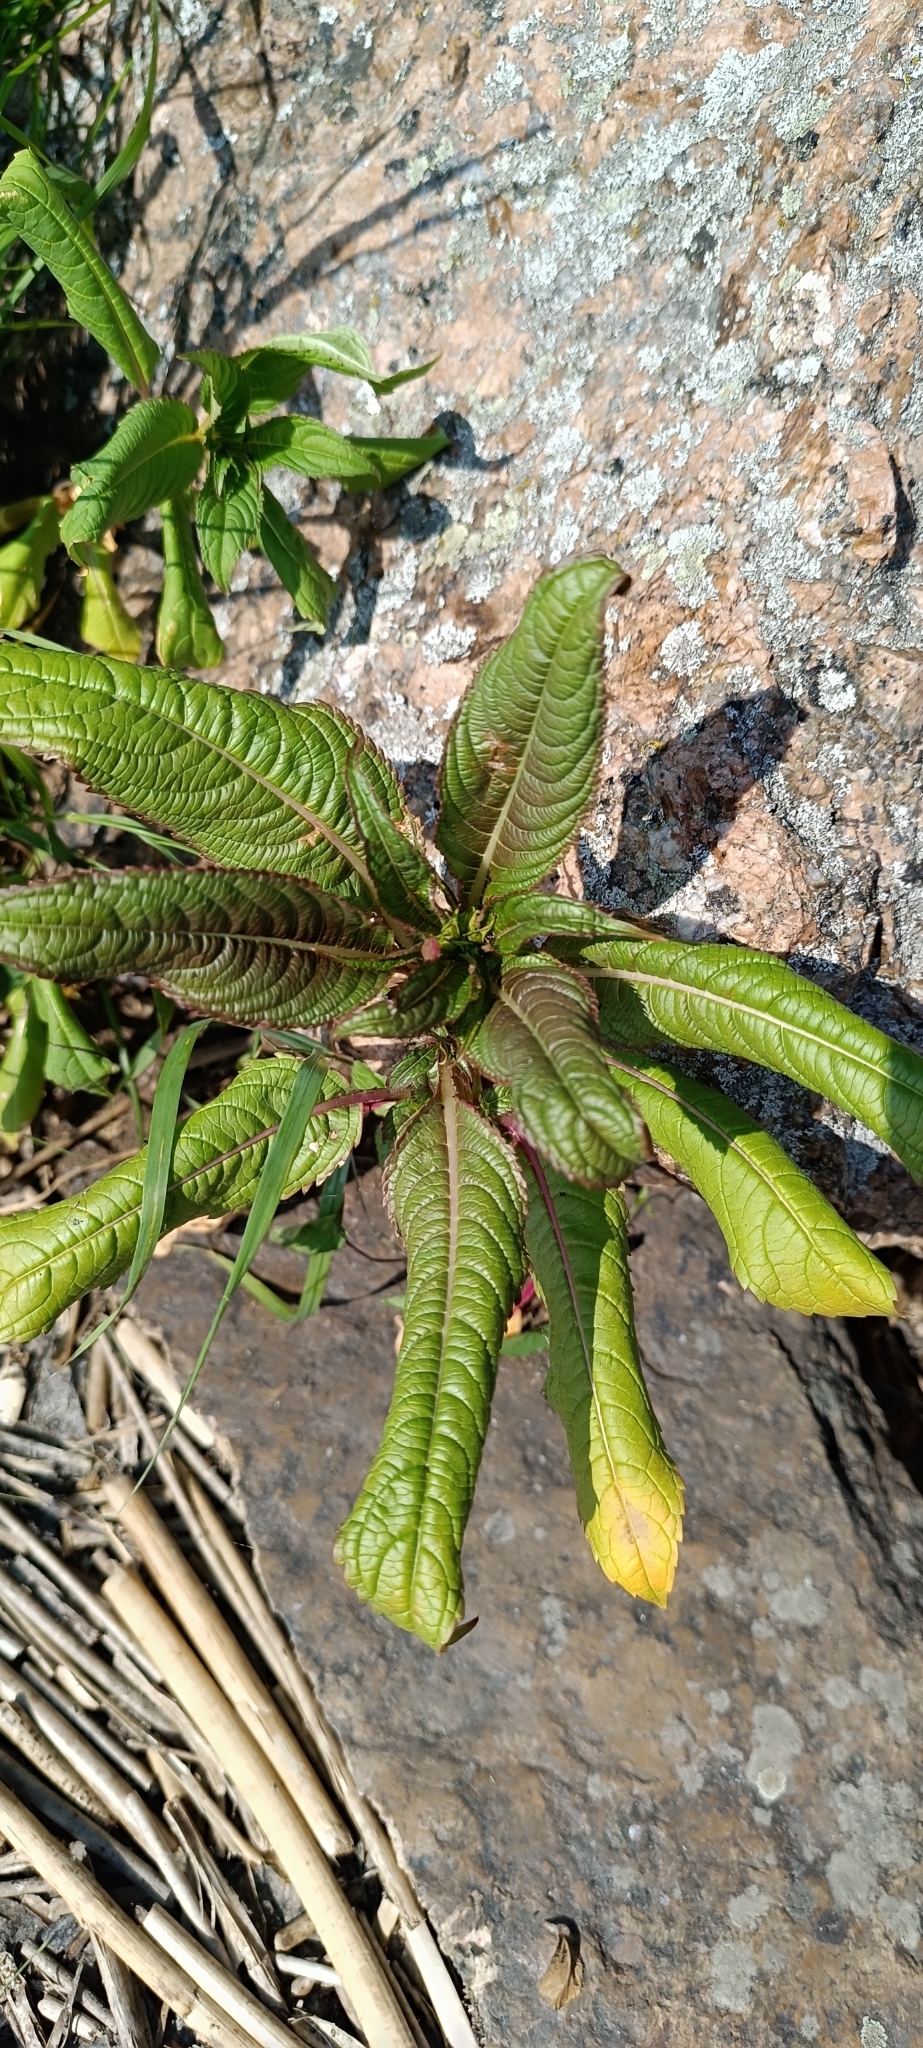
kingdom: Plantae
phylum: Tracheophyta
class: Magnoliopsida
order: Ericales
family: Balsaminaceae
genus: Impatiens
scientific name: Impatiens glandulifera
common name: Himalayan balsam
